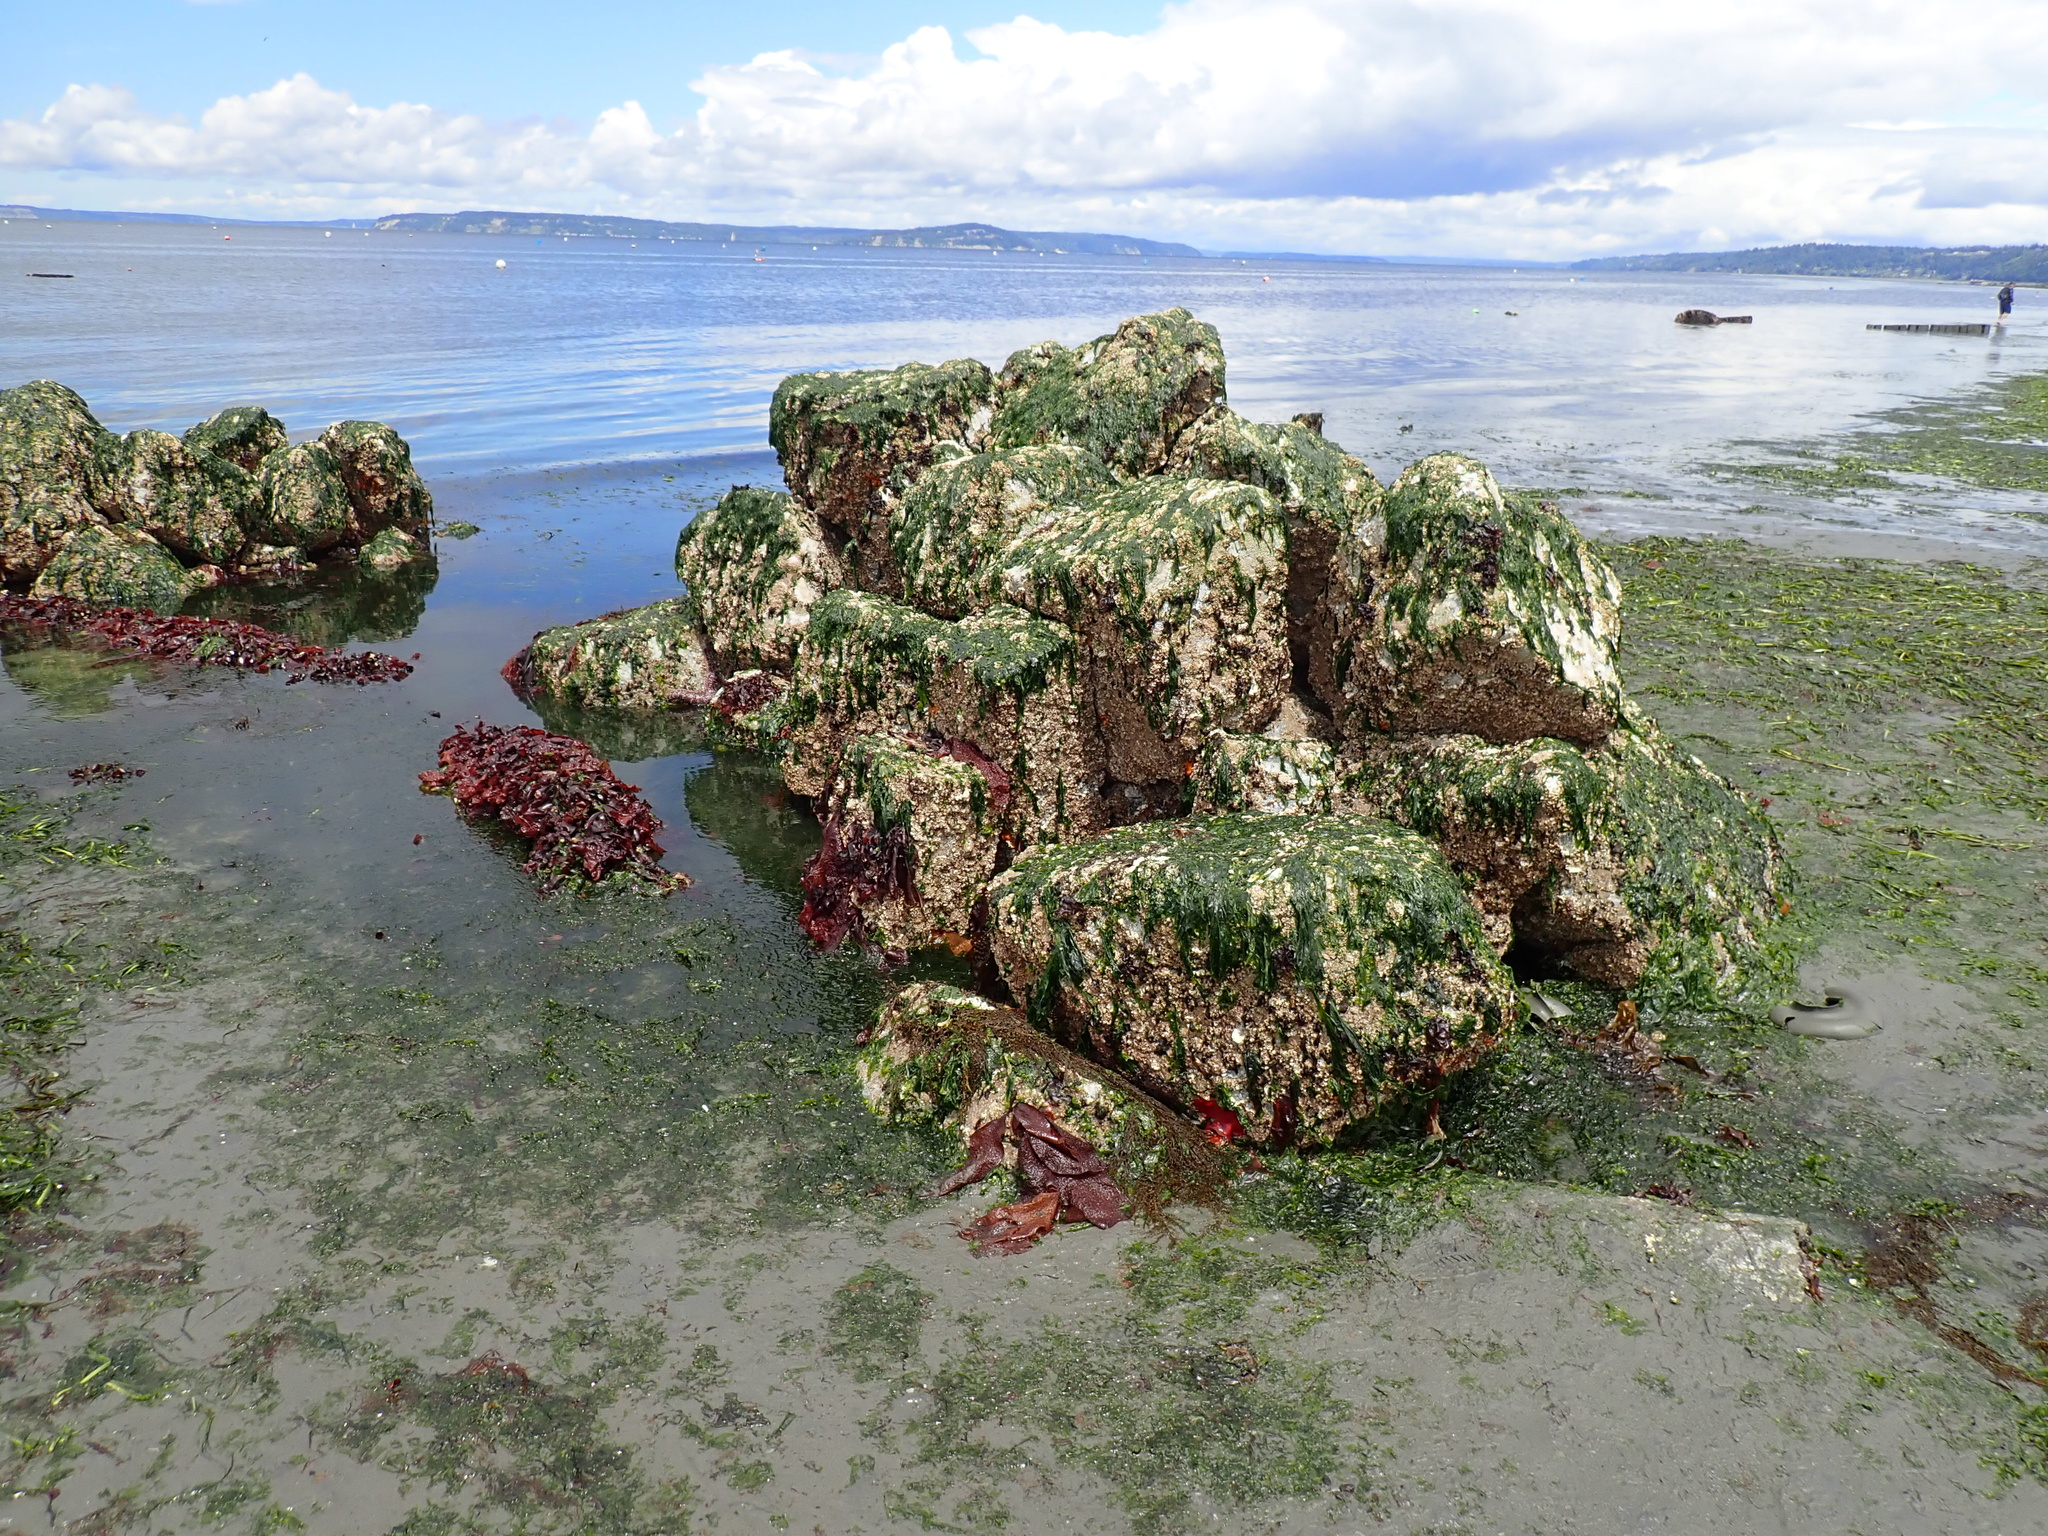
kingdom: Animalia
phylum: Mollusca
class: Gastropoda
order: Nudibranchia
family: Polyceridae
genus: Triopha
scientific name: Triopha catalinae
